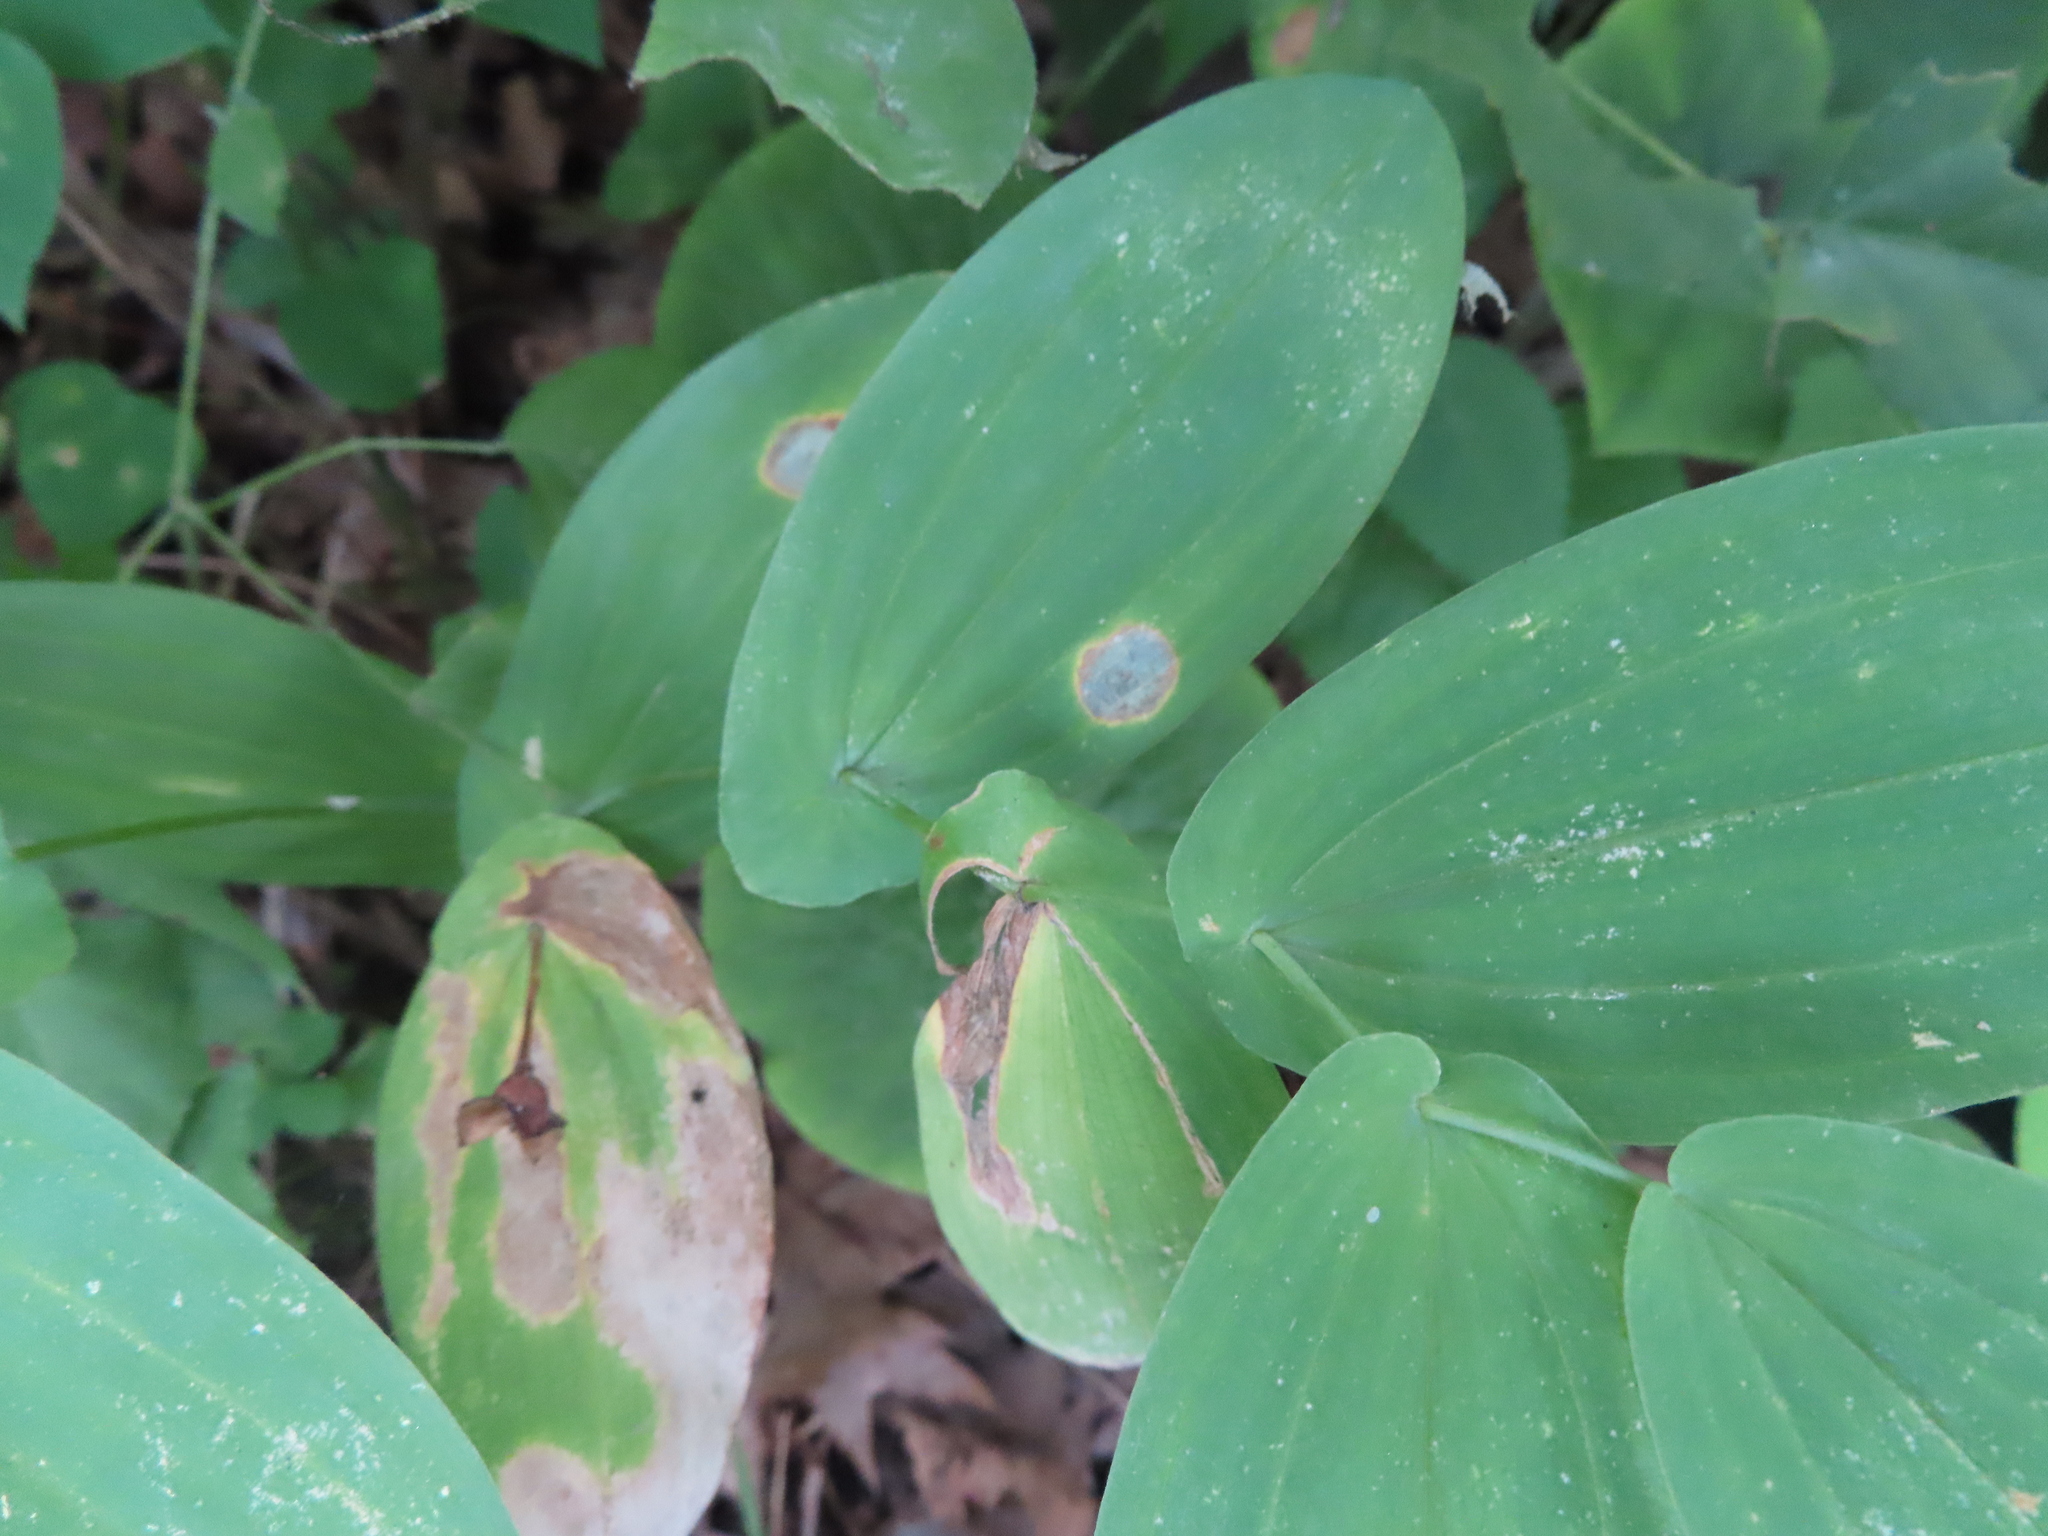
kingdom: Plantae
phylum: Tracheophyta
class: Liliopsida
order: Liliales
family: Colchicaceae
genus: Uvularia
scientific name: Uvularia grandiflora
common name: Bellwort
